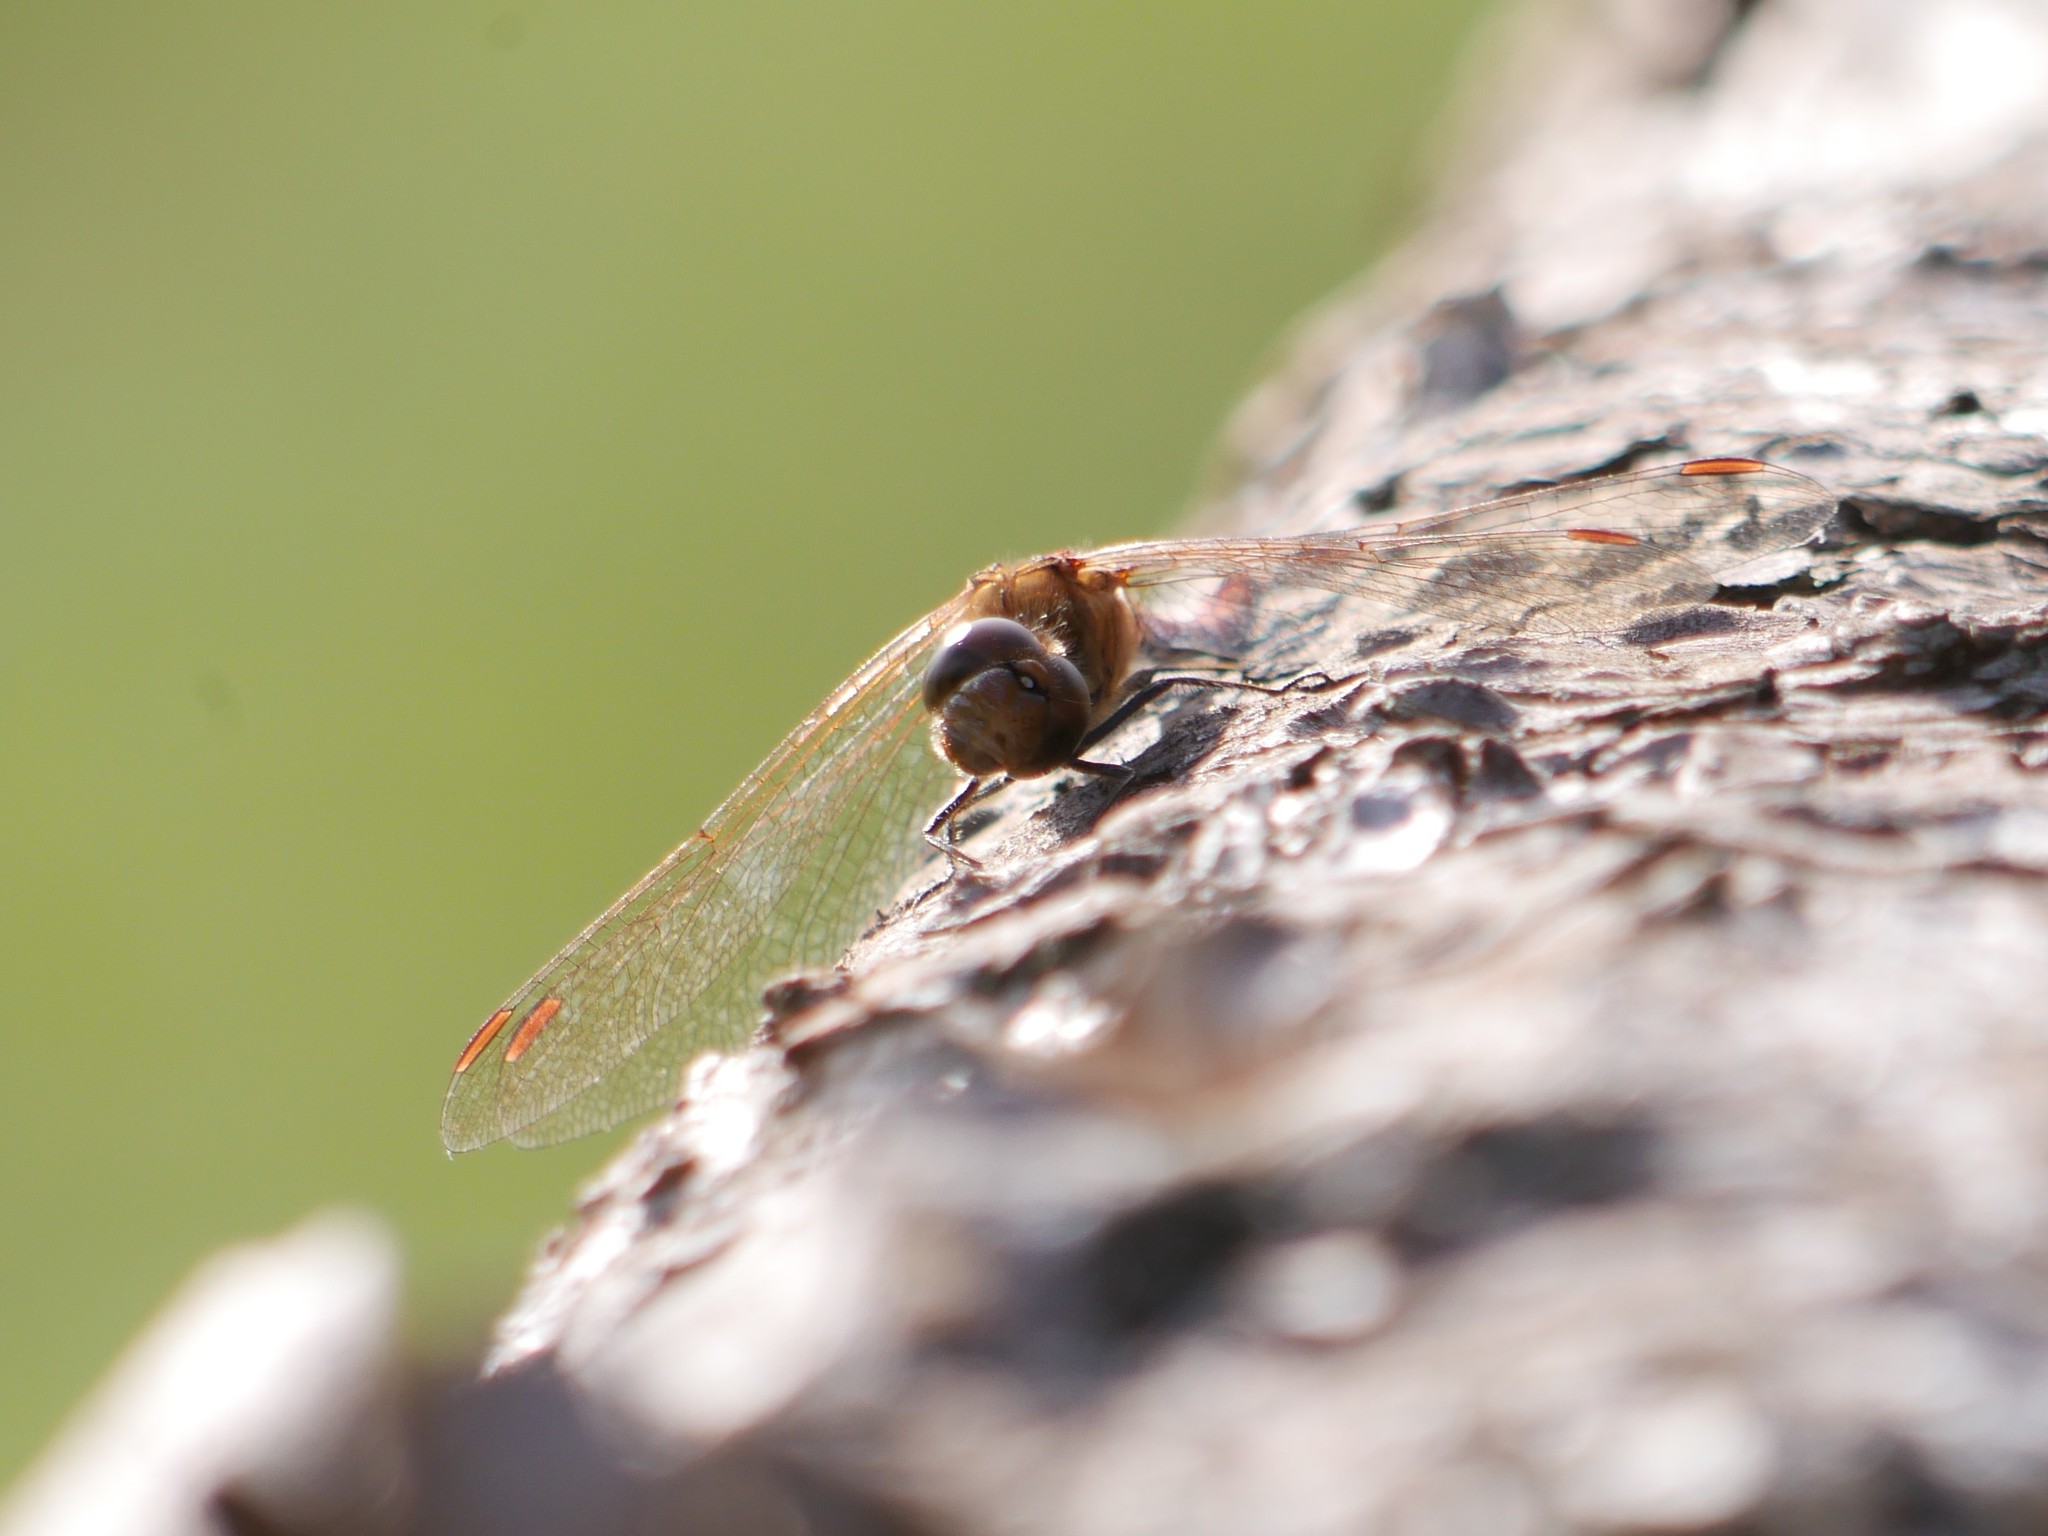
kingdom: Animalia
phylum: Arthropoda
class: Insecta
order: Odonata
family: Libellulidae
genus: Sympetrum
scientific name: Sympetrum fonscolombii
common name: Red-veined darter
